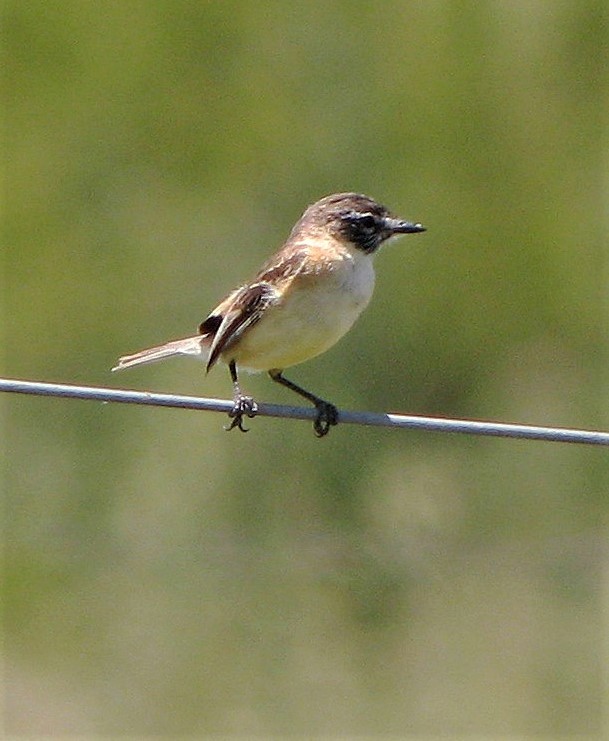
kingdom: Animalia
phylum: Chordata
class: Aves
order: Passeriformes
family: Tyrannidae
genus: Polystictus
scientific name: Polystictus pectoralis
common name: Bearded tachuri
